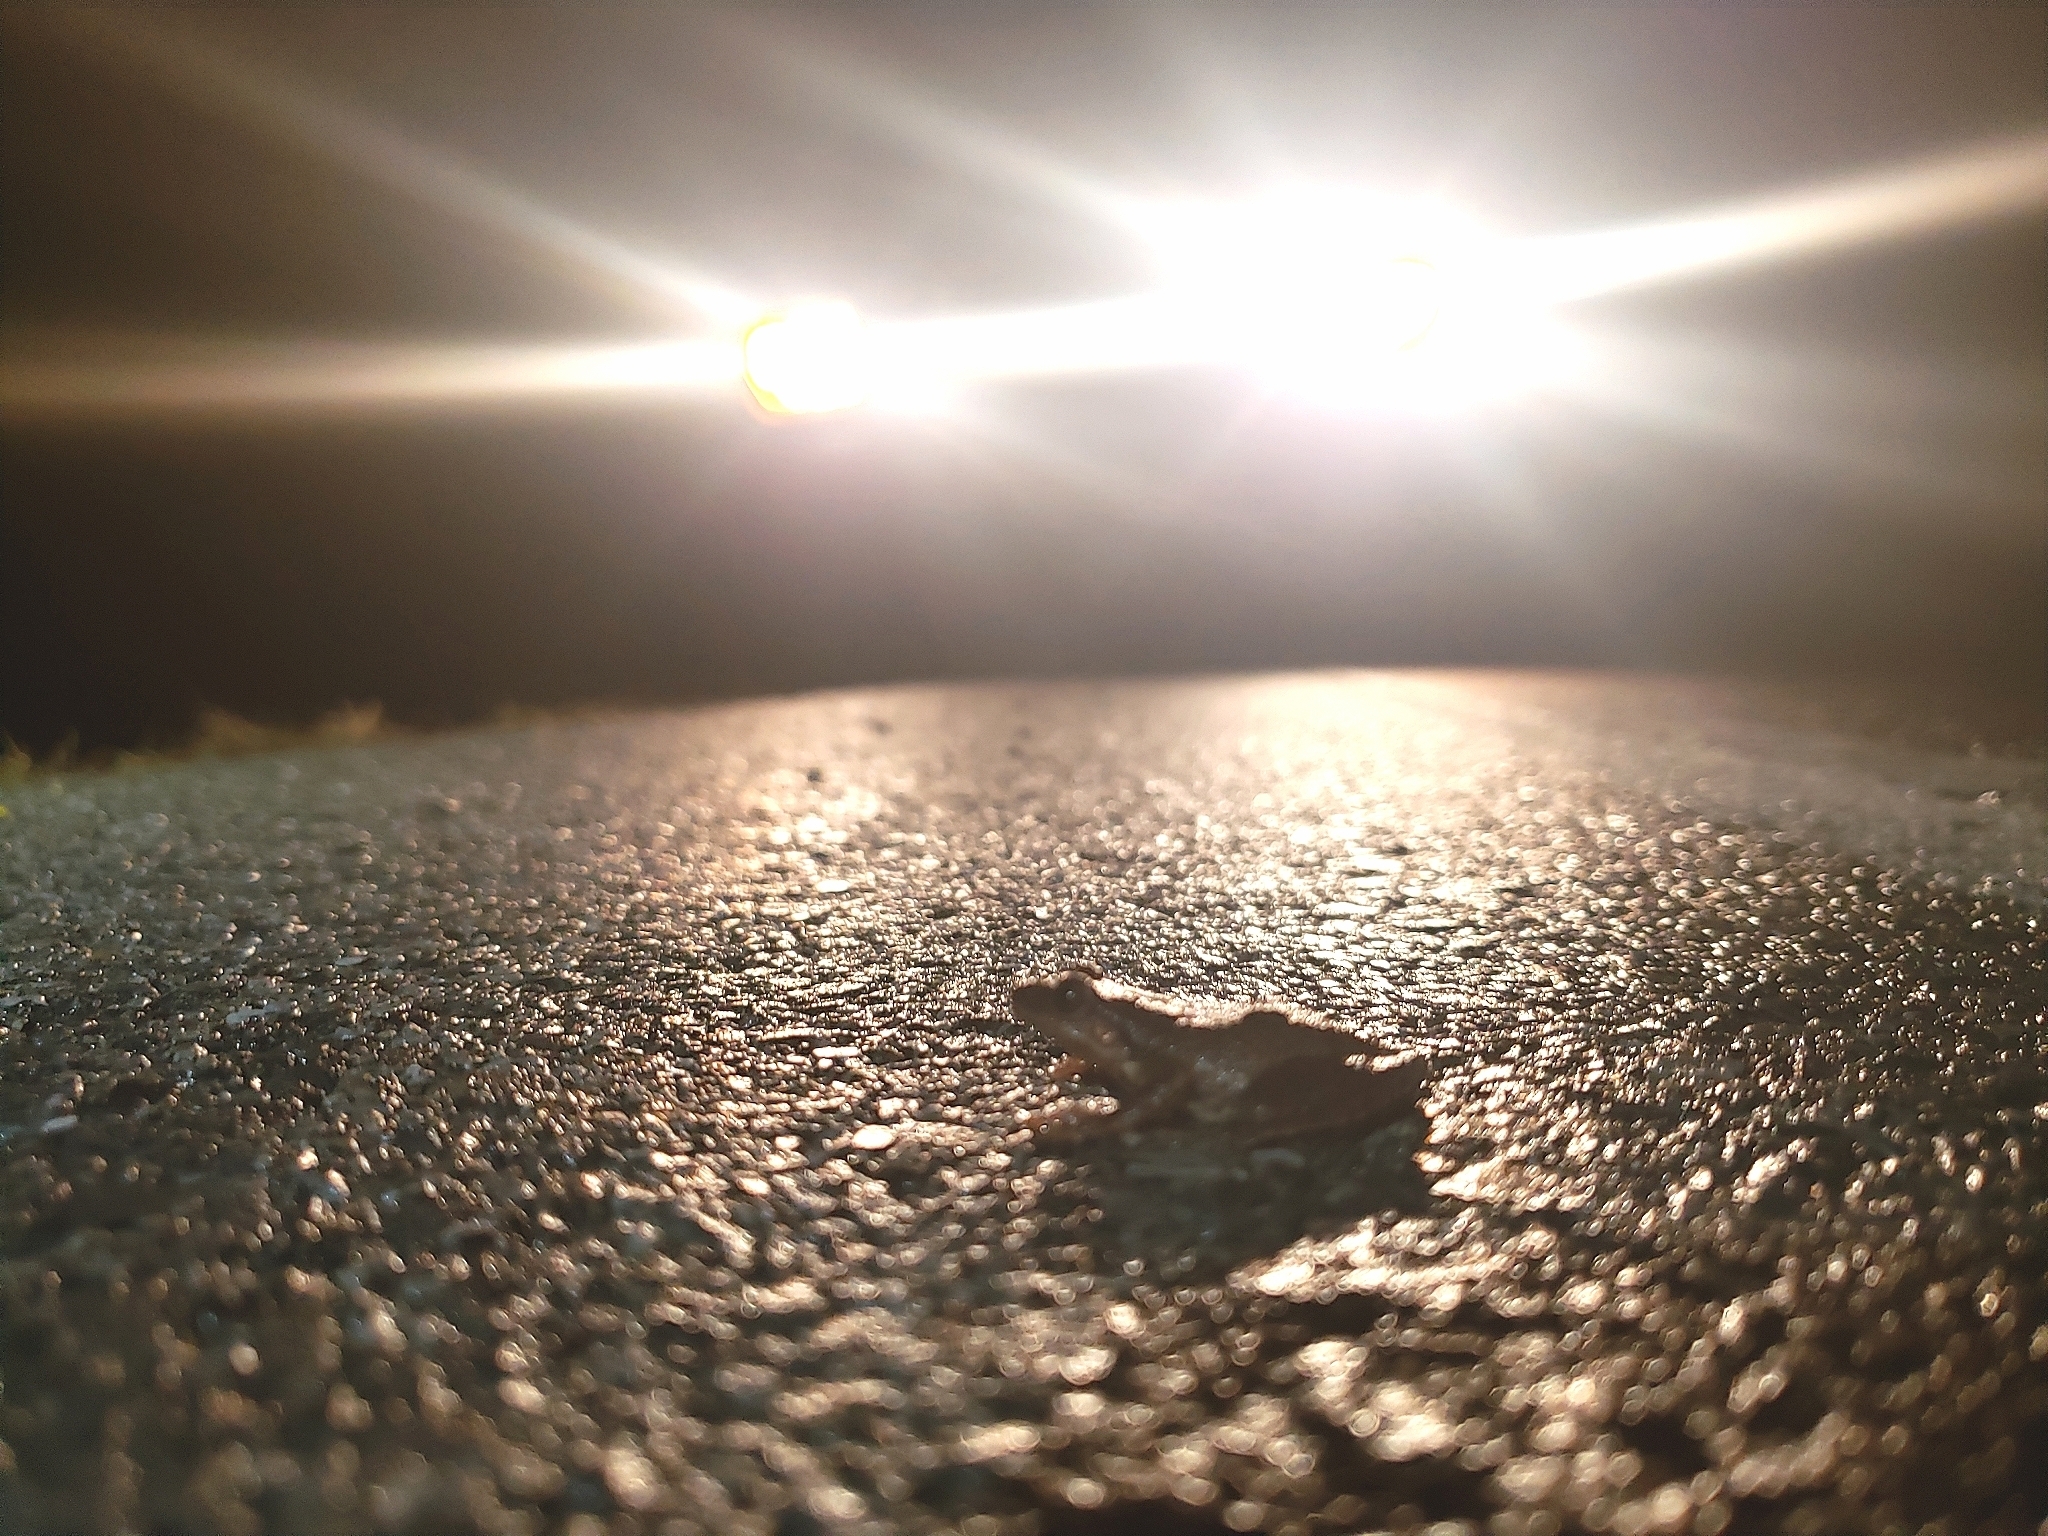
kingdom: Animalia
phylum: Chordata
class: Amphibia
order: Anura
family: Hylidae
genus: Pseudacris
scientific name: Pseudacris crucifer
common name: Spring peeper
